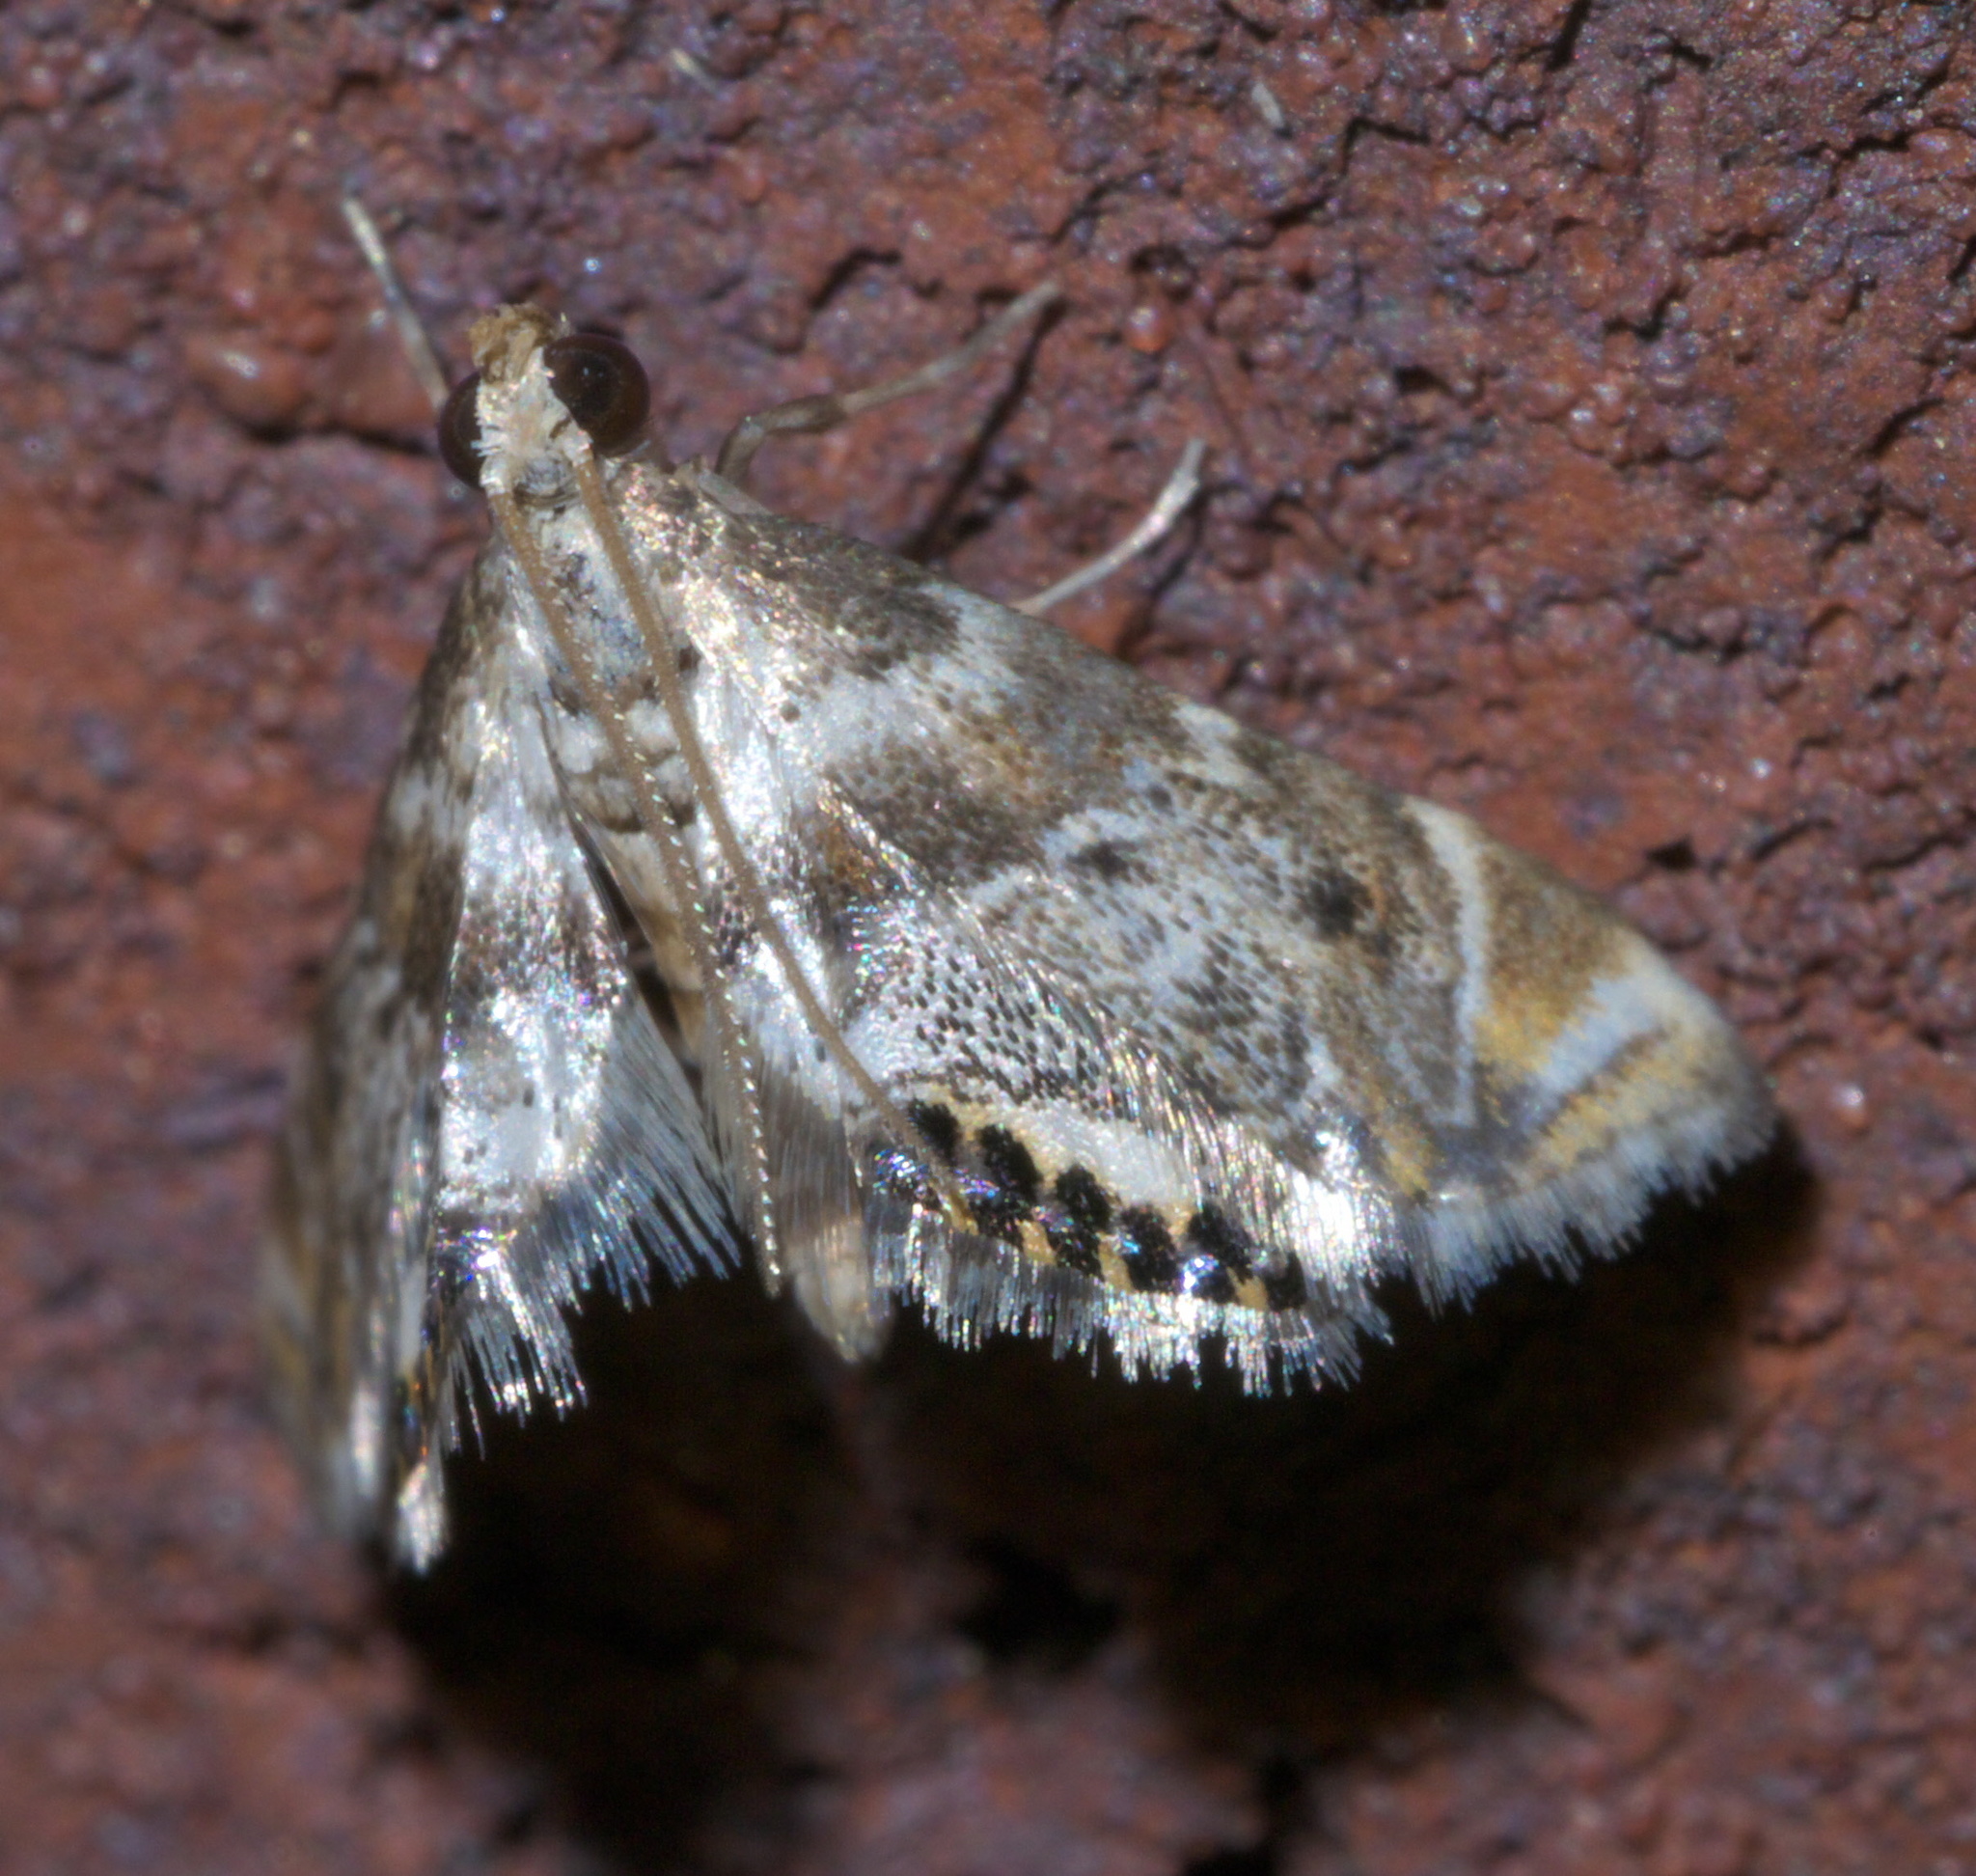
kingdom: Animalia
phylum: Arthropoda
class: Insecta
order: Lepidoptera
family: Crambidae
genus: Petrophila
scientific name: Petrophila fulicalis
